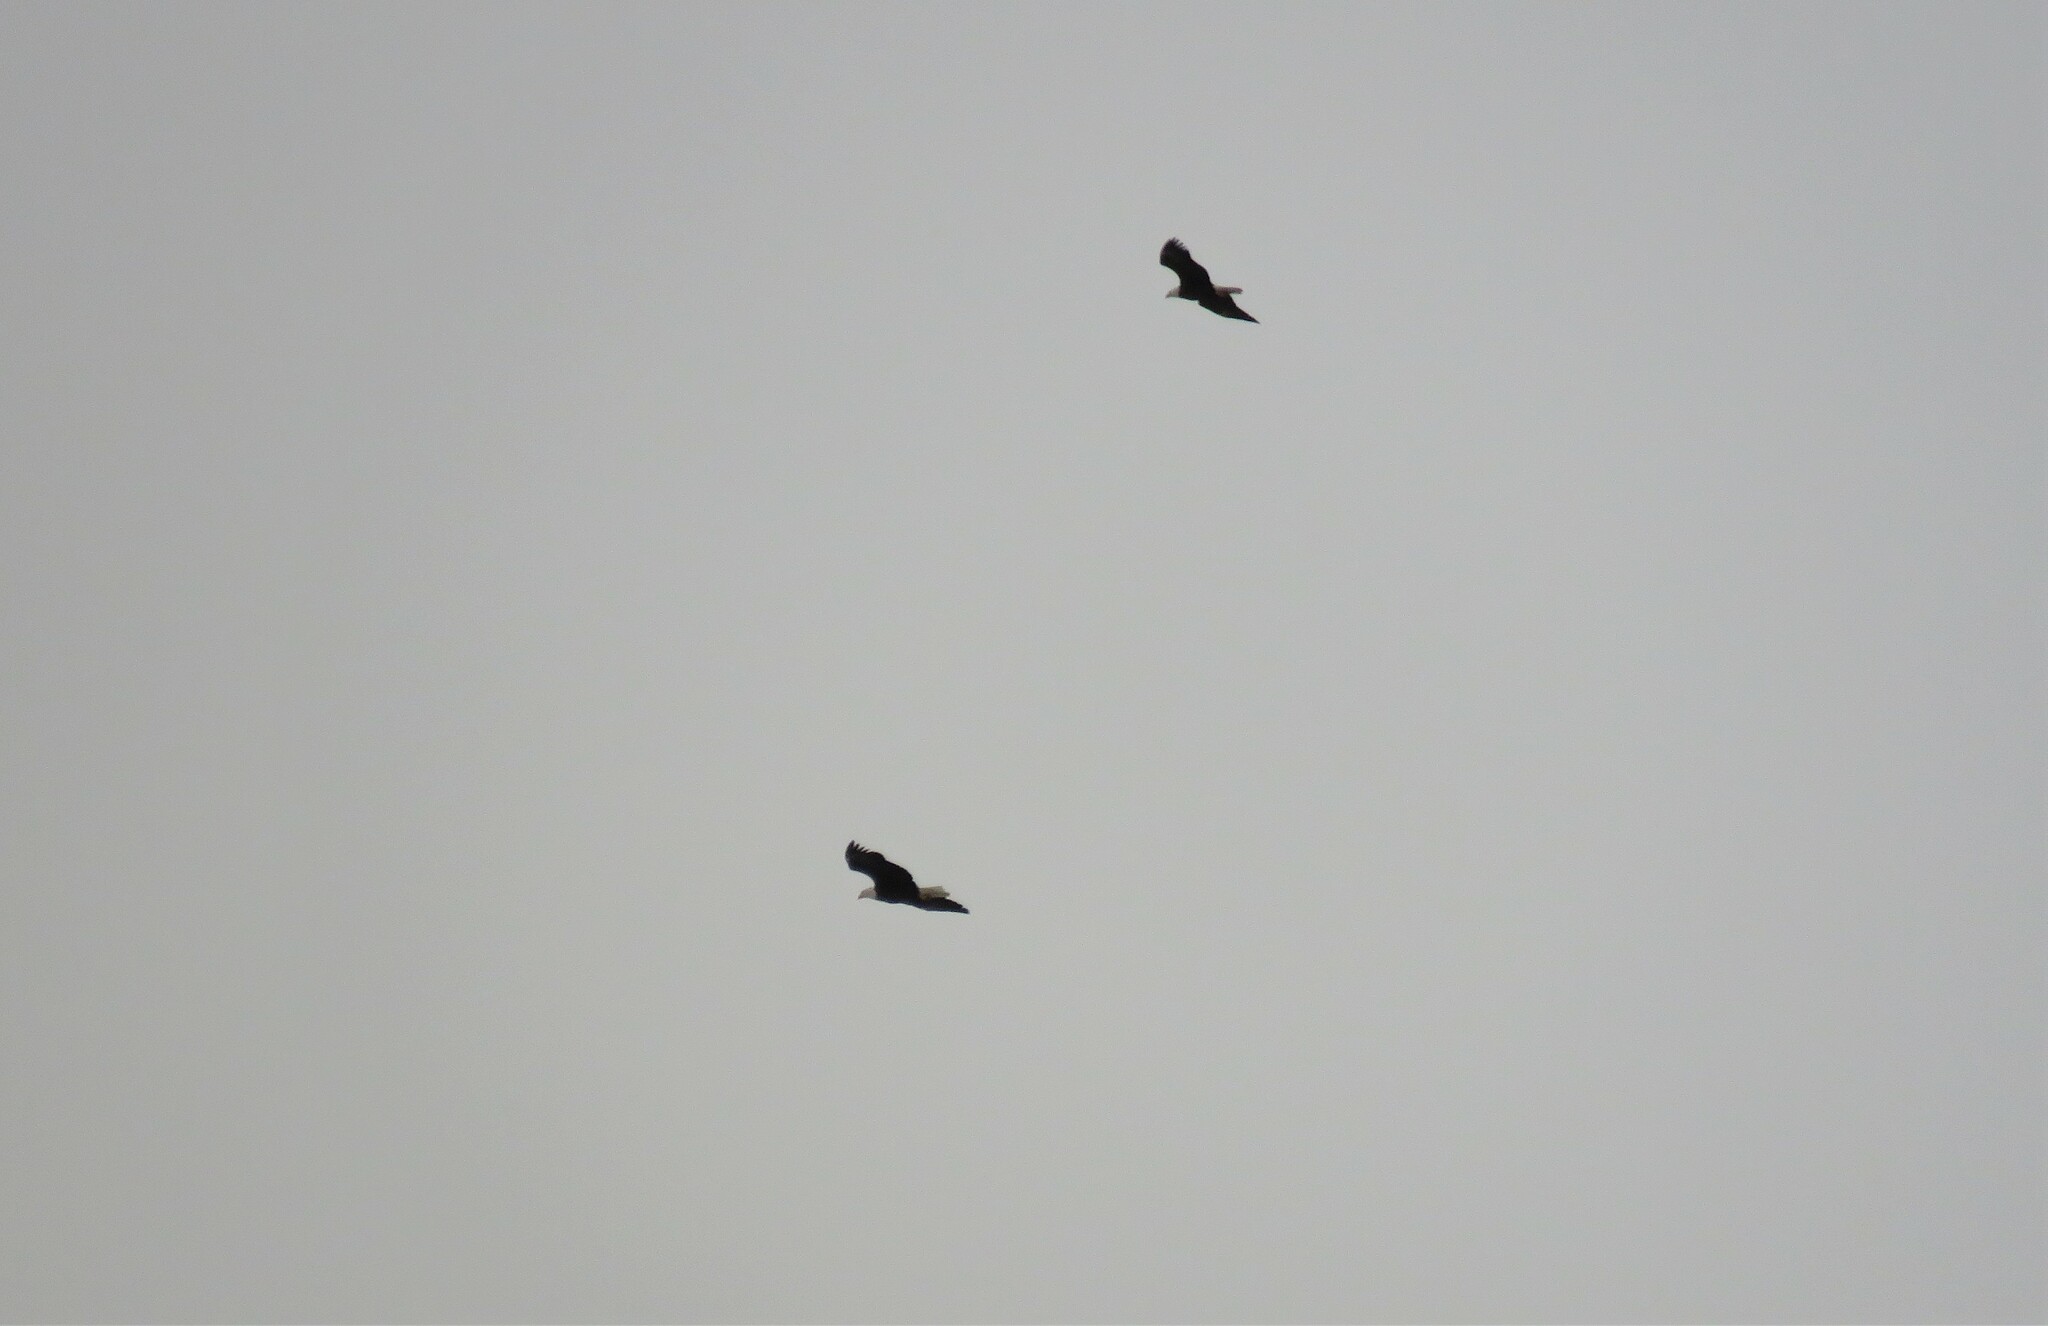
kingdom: Animalia
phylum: Chordata
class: Aves
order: Accipitriformes
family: Accipitridae
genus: Haliaeetus
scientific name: Haliaeetus leucocephalus
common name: Bald eagle
